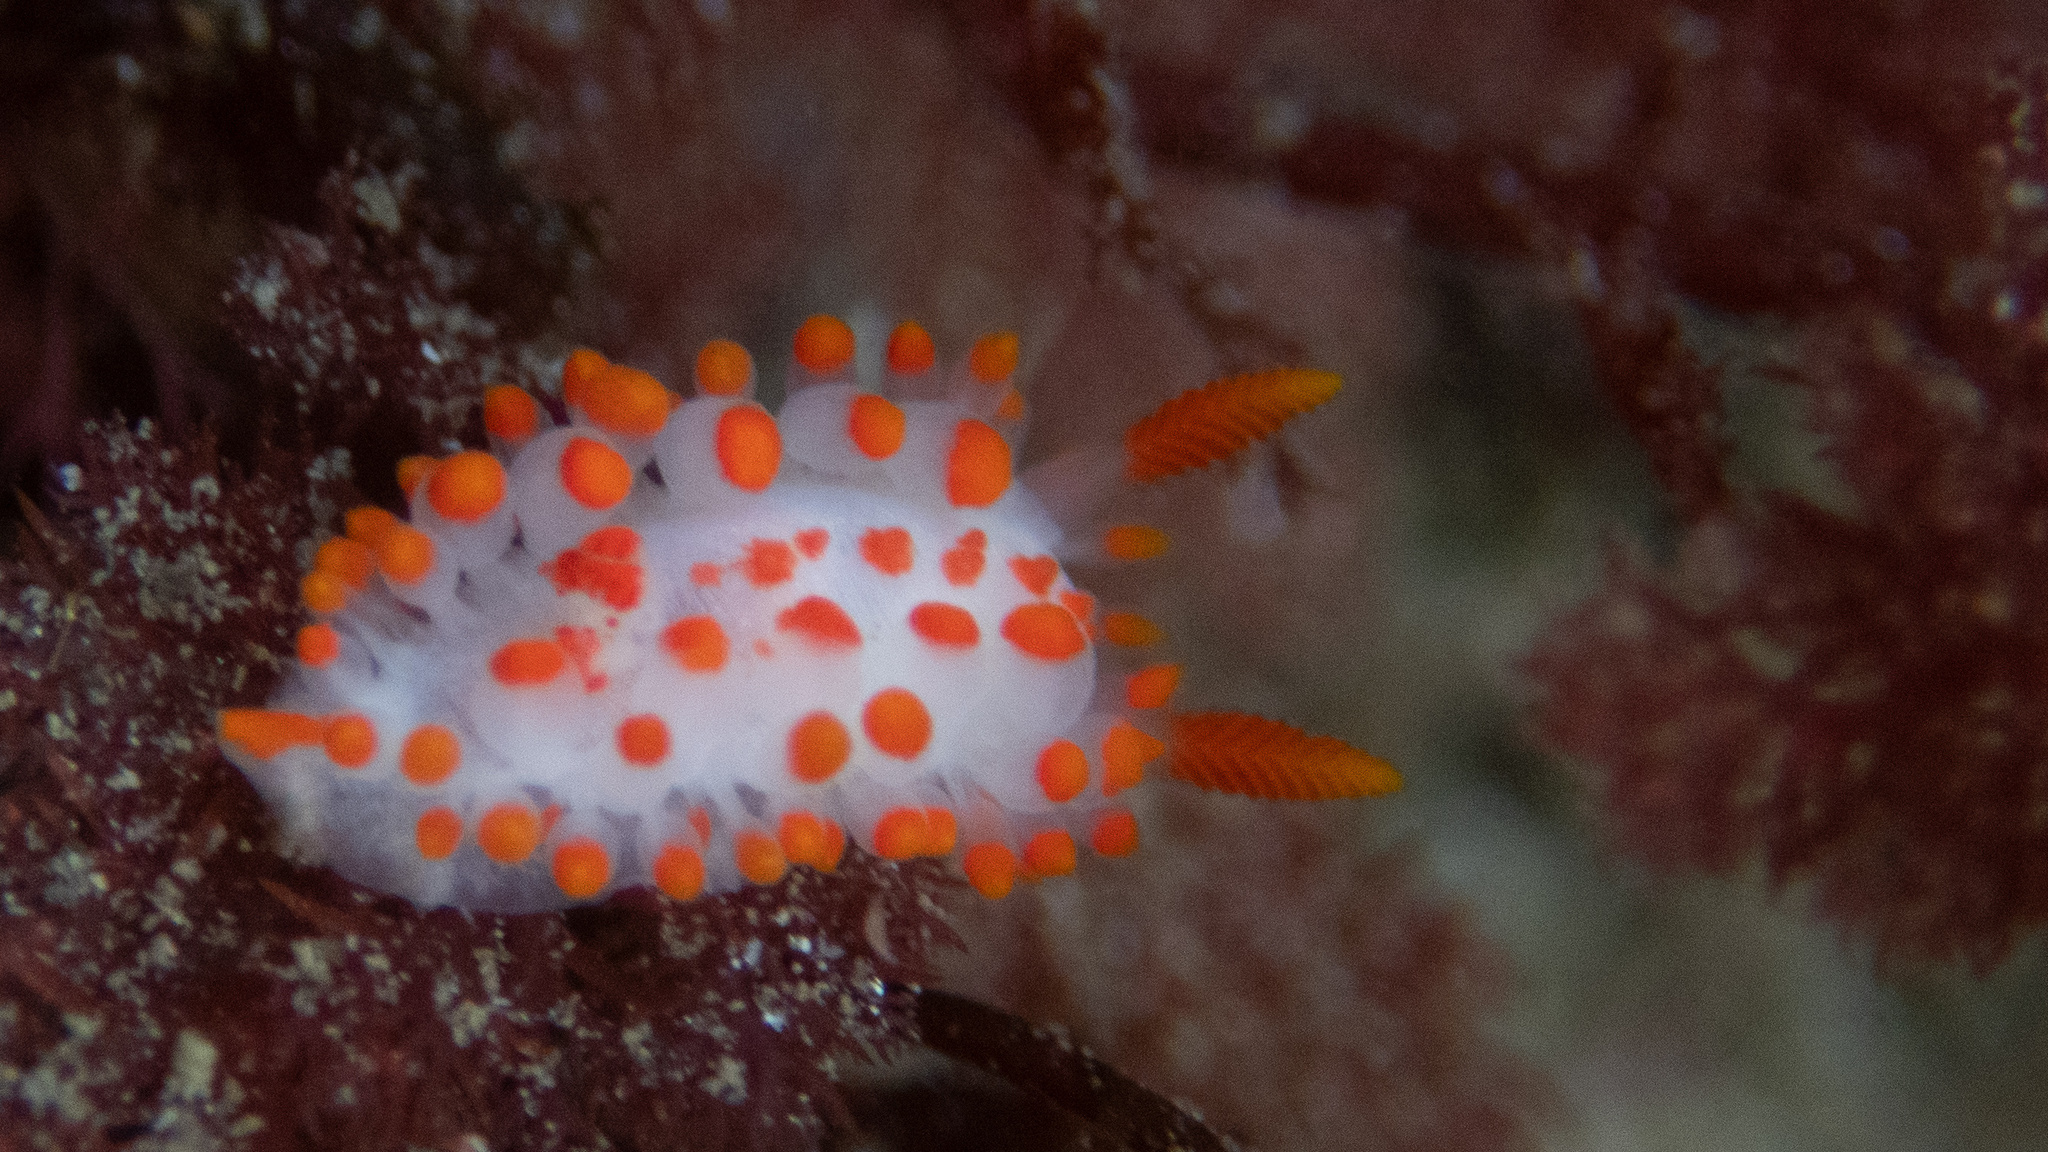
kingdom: Animalia
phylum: Mollusca
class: Gastropoda
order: Nudibranchia
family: Polyceridae
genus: Limacia
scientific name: Limacia mcdonaldi
